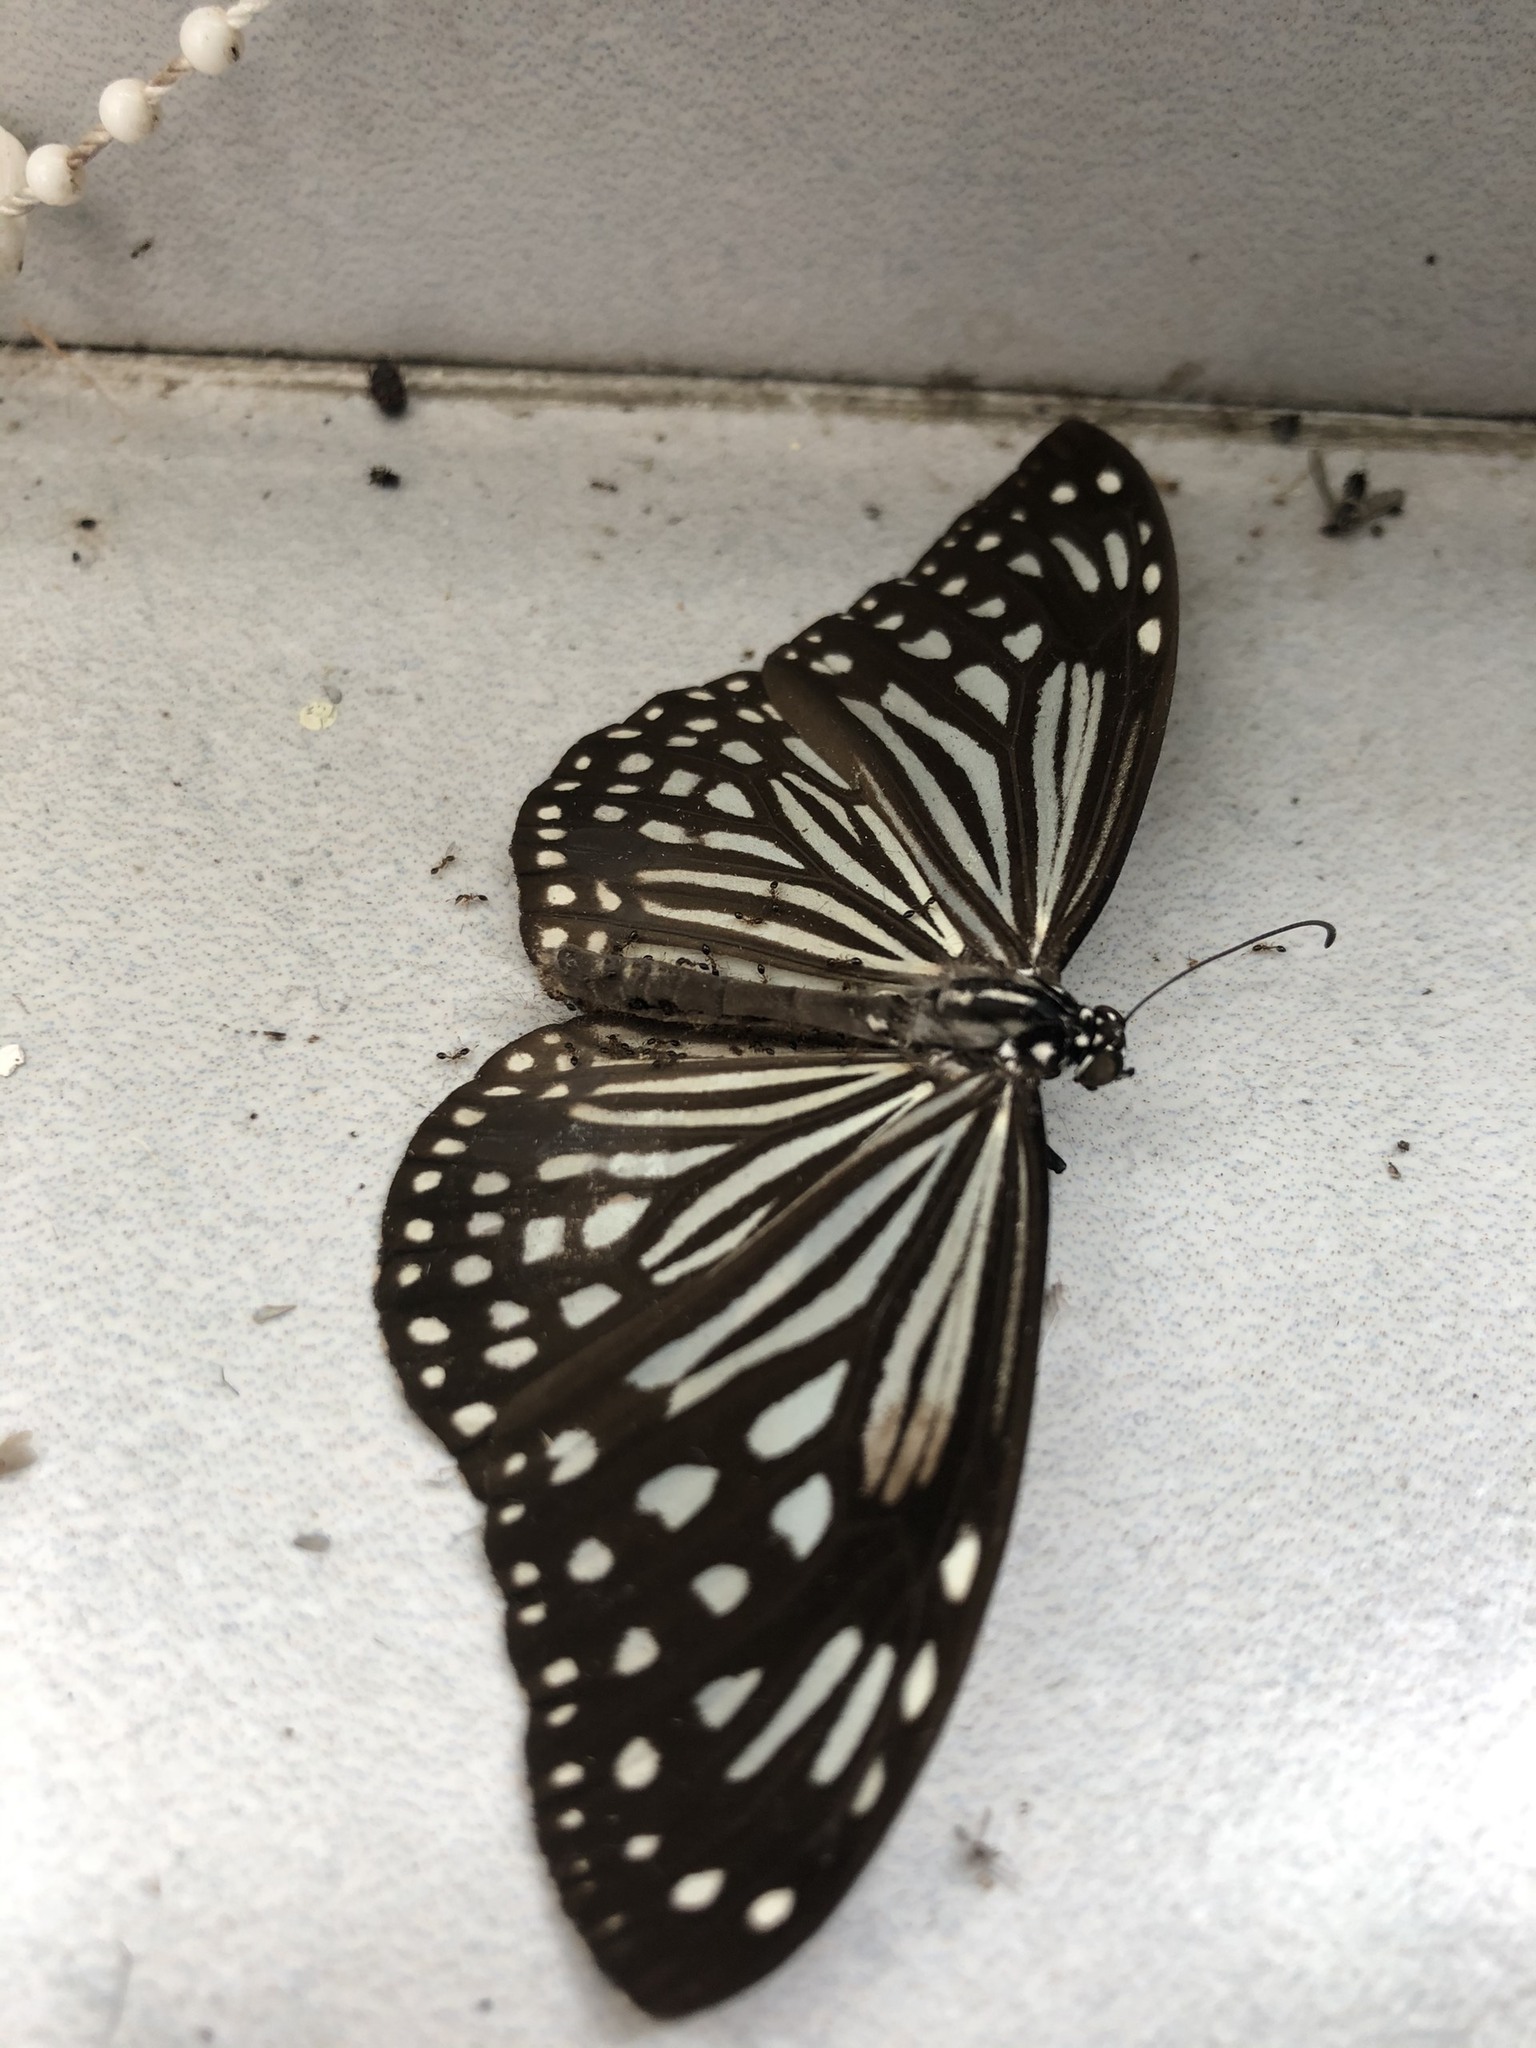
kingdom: Animalia
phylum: Arthropoda
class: Insecta
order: Lepidoptera
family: Nymphalidae
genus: Parantica
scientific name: Parantica agleoides
